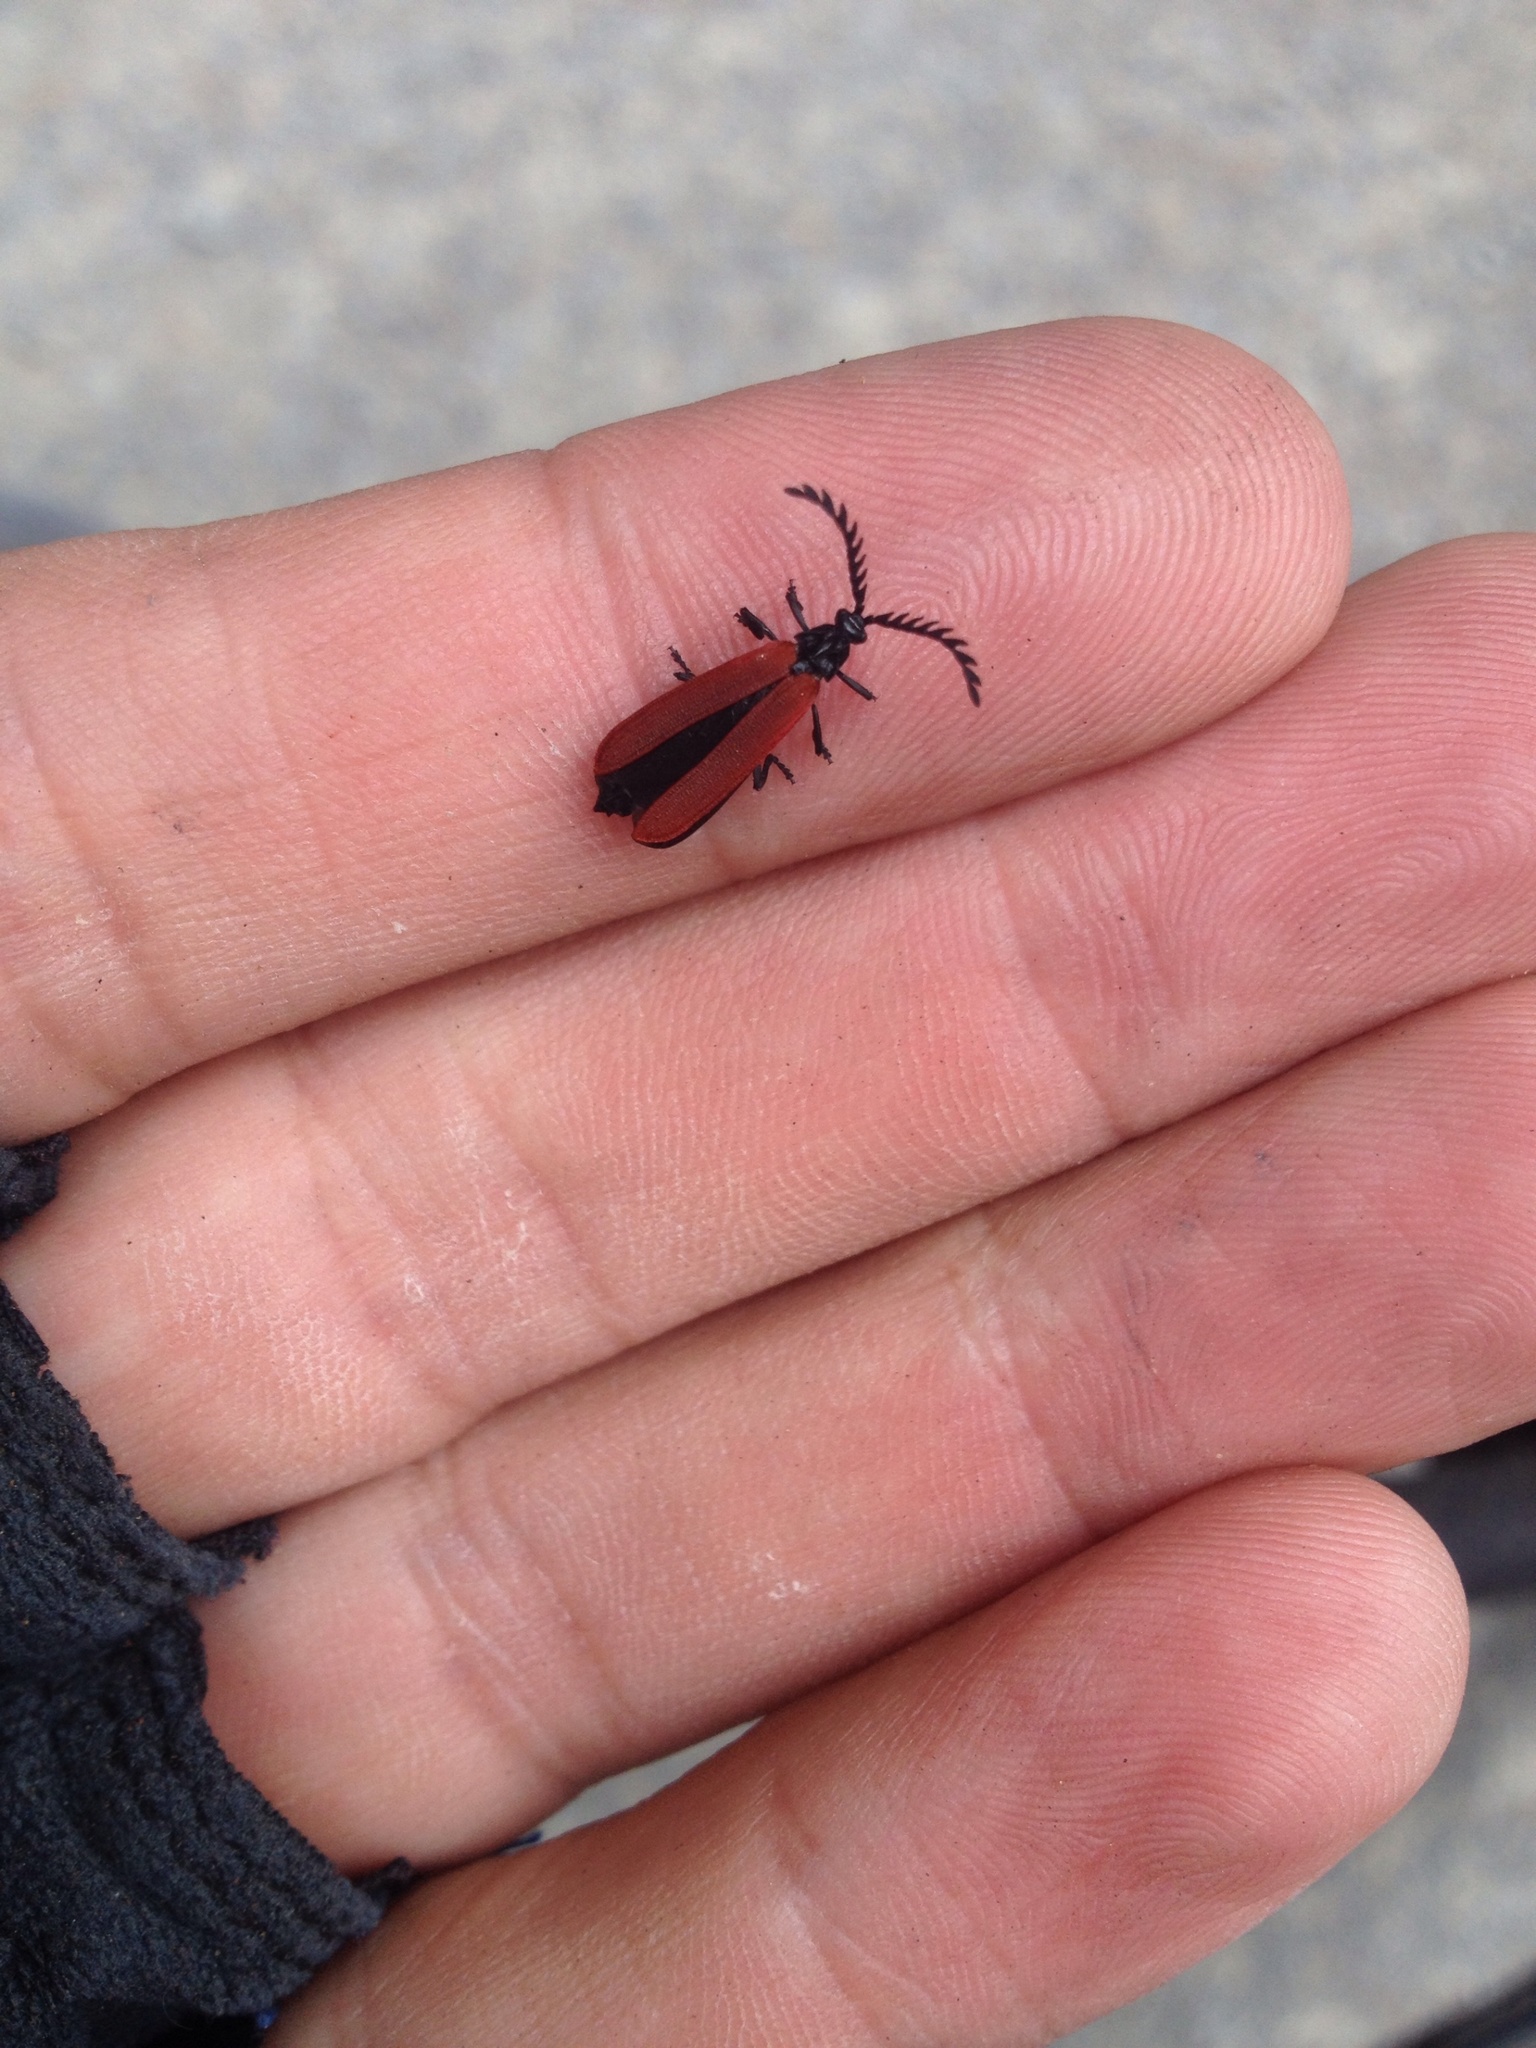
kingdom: Animalia
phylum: Arthropoda
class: Insecta
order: Coleoptera
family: Lycidae
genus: Porrostoma
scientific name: Porrostoma rufipenne
